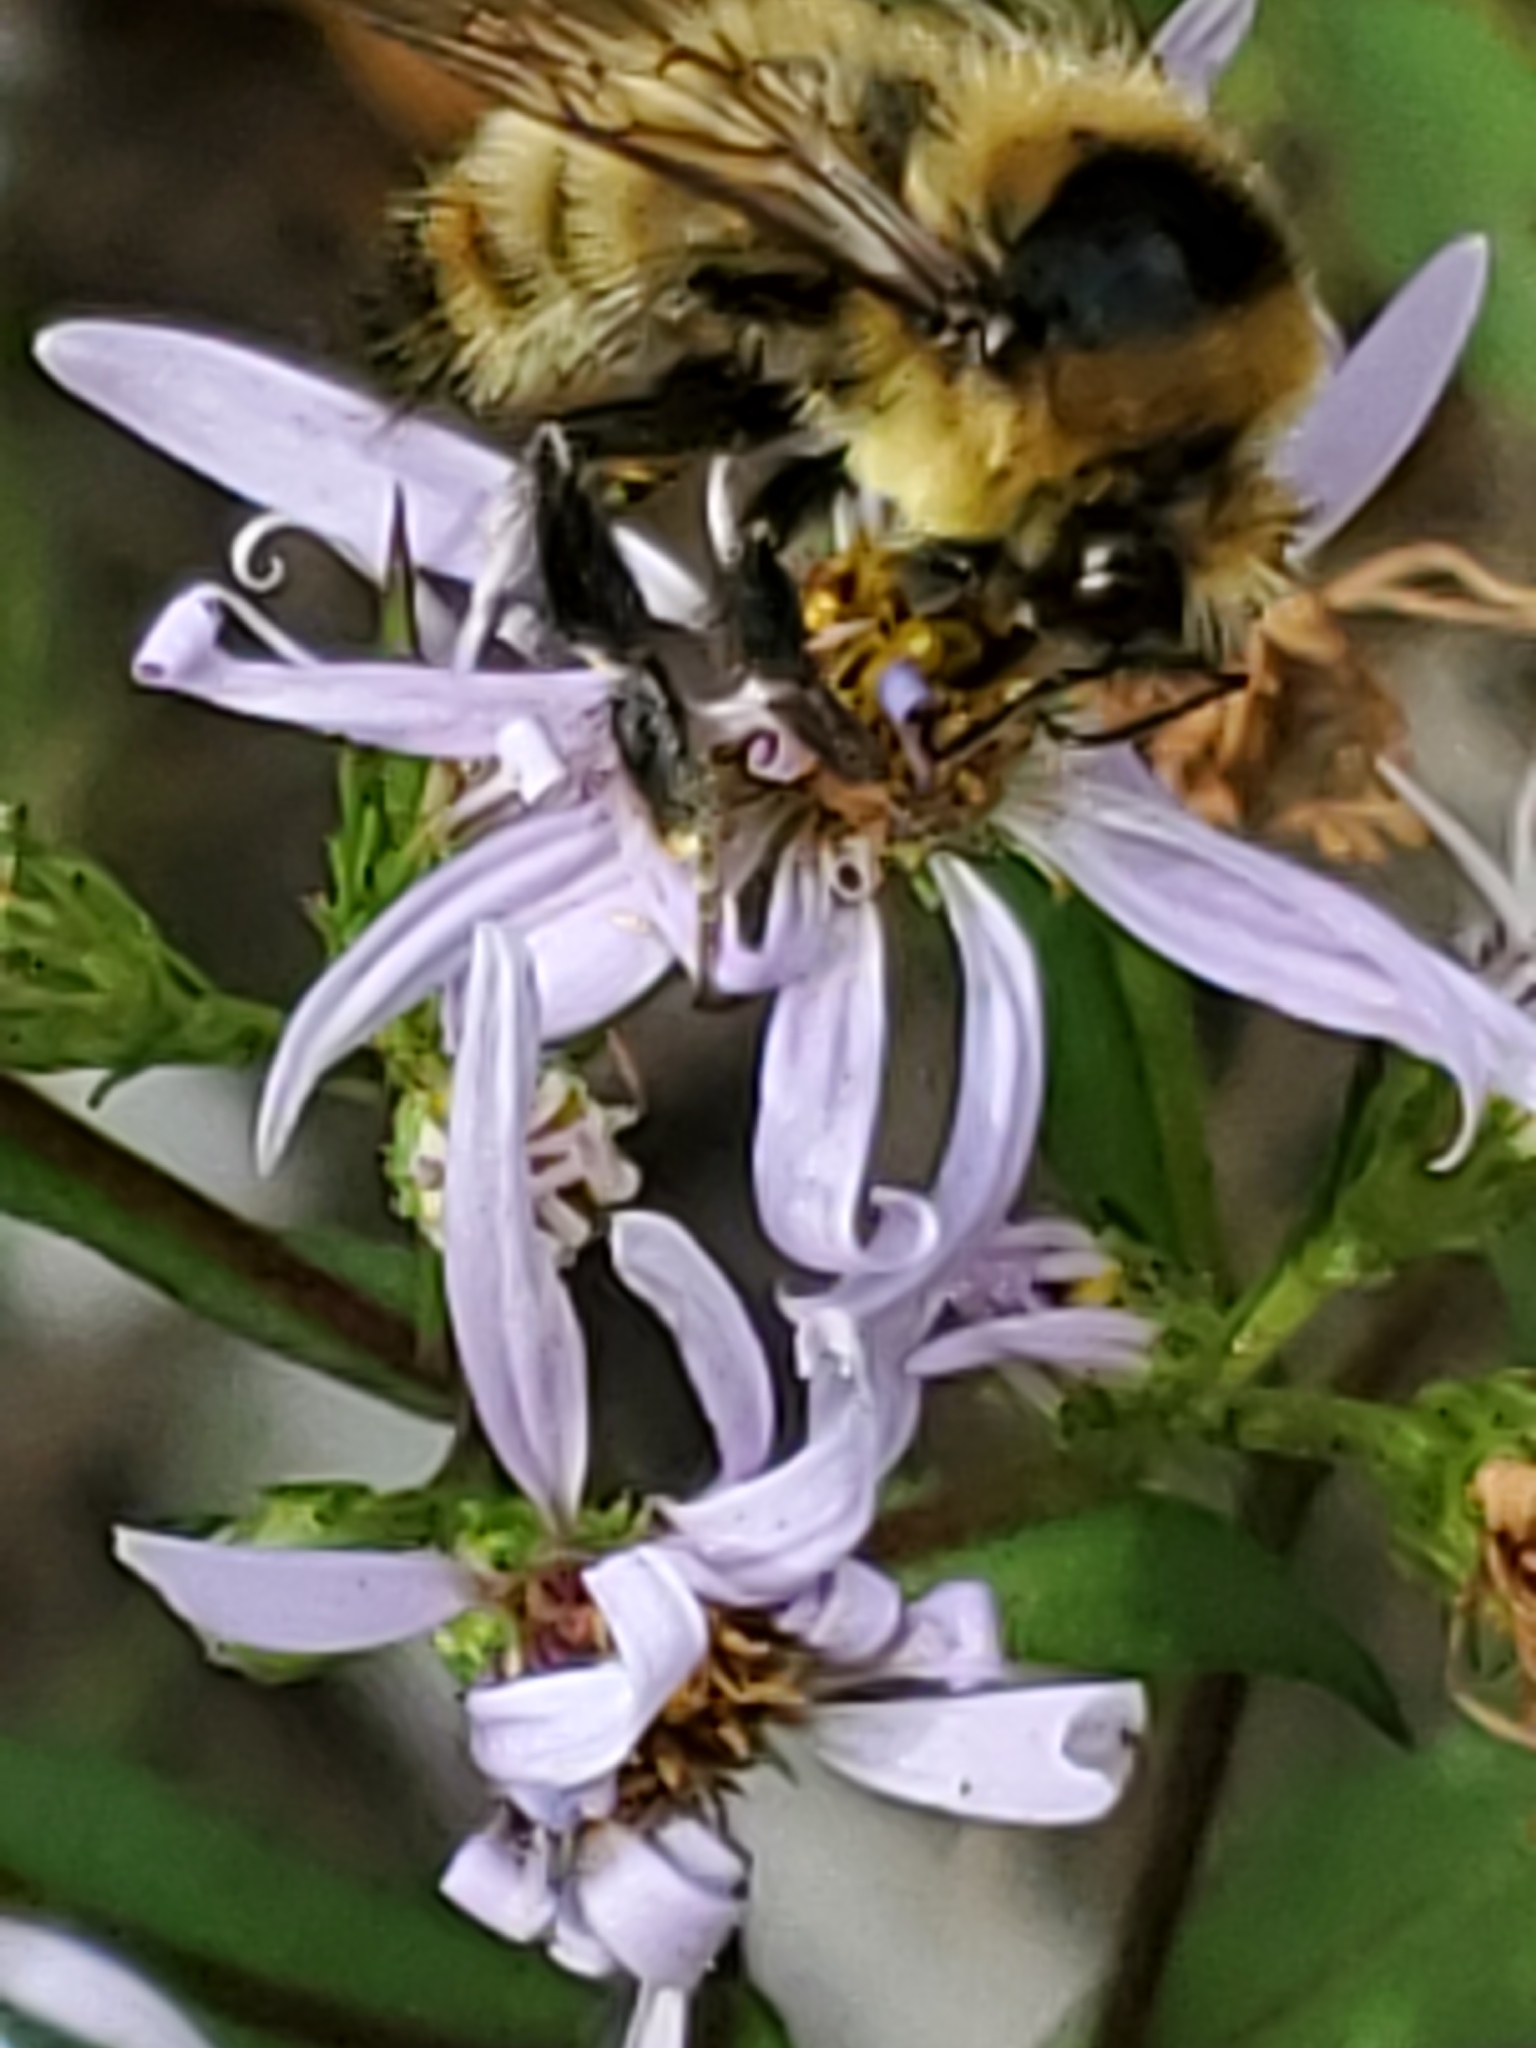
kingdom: Animalia
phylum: Arthropoda
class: Insecta
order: Hymenoptera
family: Apidae
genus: Bombus
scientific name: Bombus rufocinctus
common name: Red-belted bumble bee
